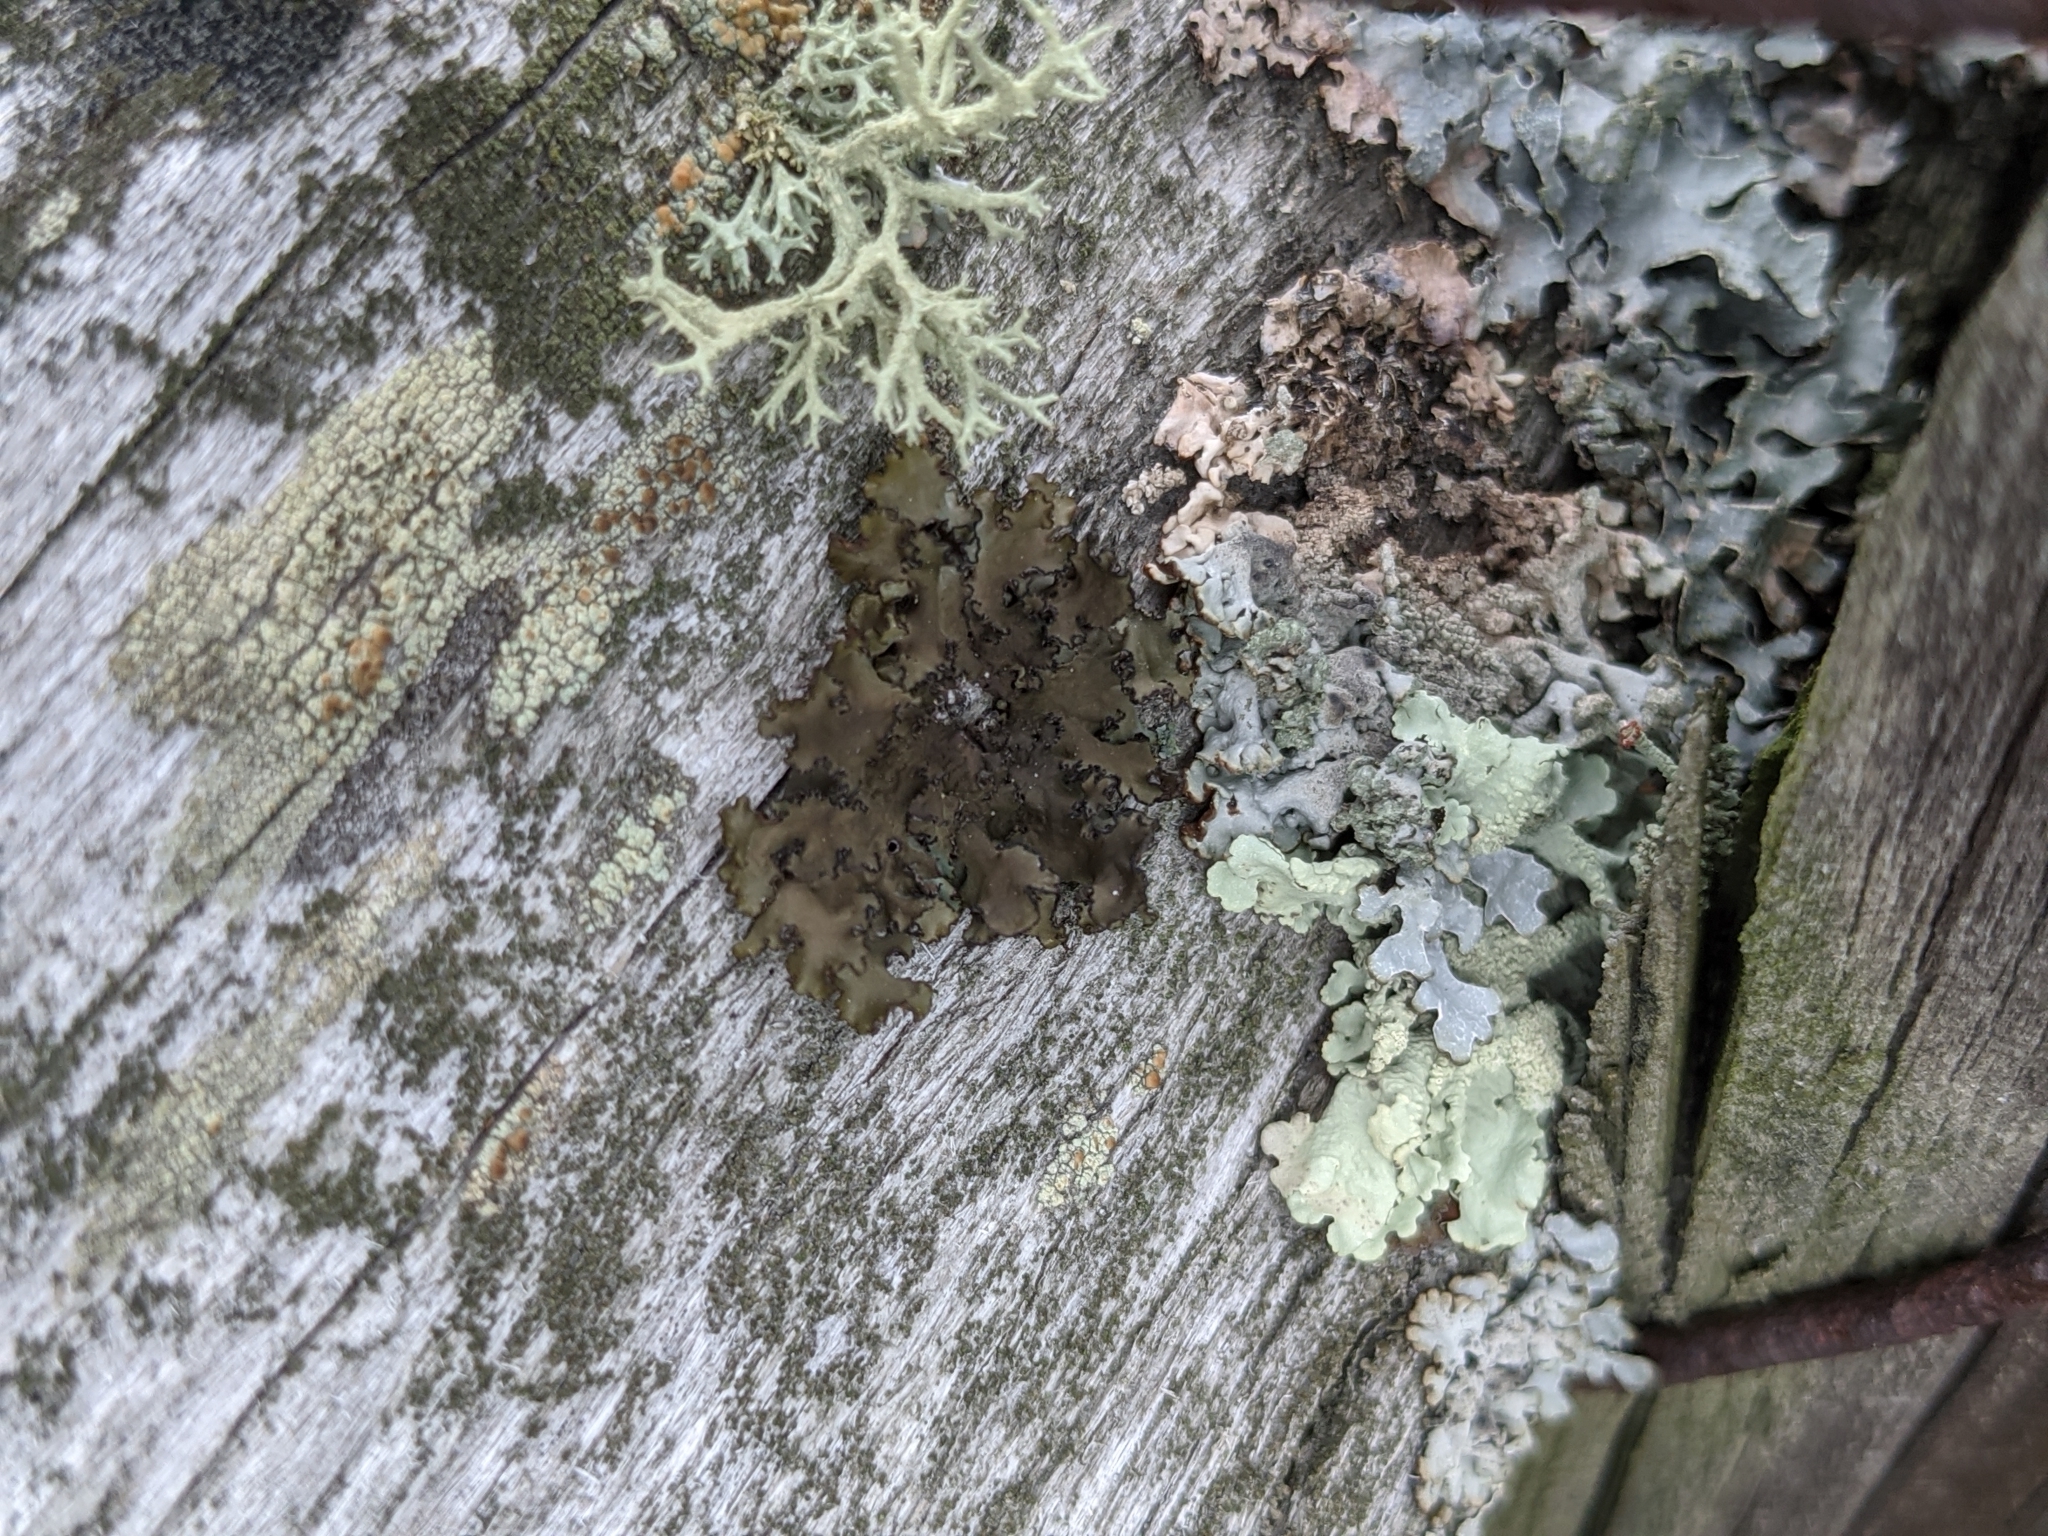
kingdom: Fungi
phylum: Ascomycota
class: Lecanoromycetes
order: Lecanorales
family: Parmeliaceae
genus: Parmelia
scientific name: Parmelia sulcata
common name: Netted shield lichen
